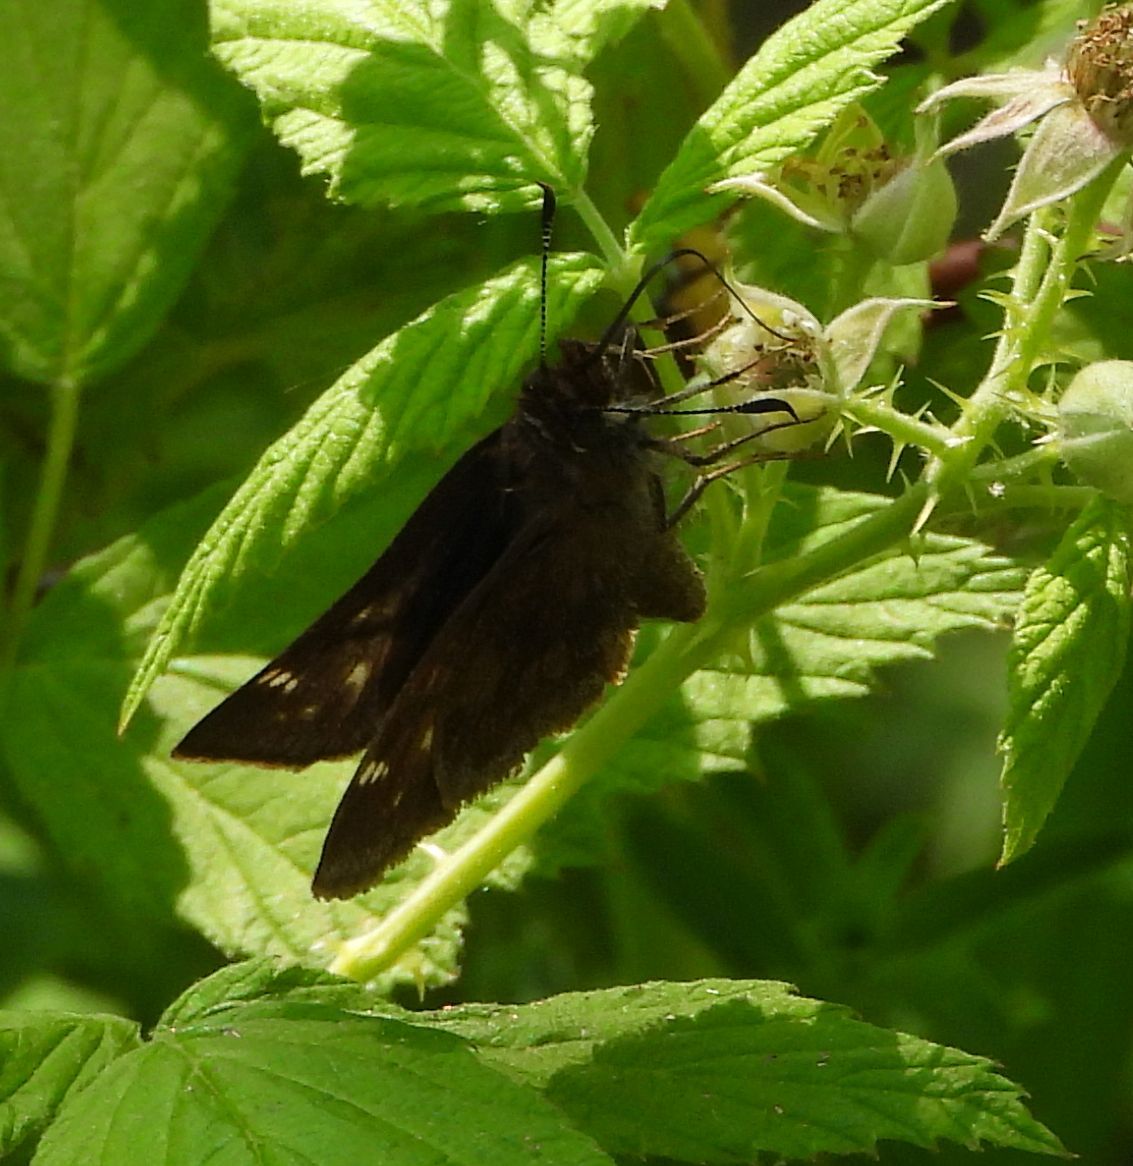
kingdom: Animalia
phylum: Arthropoda
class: Insecta
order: Lepidoptera
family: Hesperiidae
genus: Lon
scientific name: Lon hobomok
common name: Hobomok skipper
